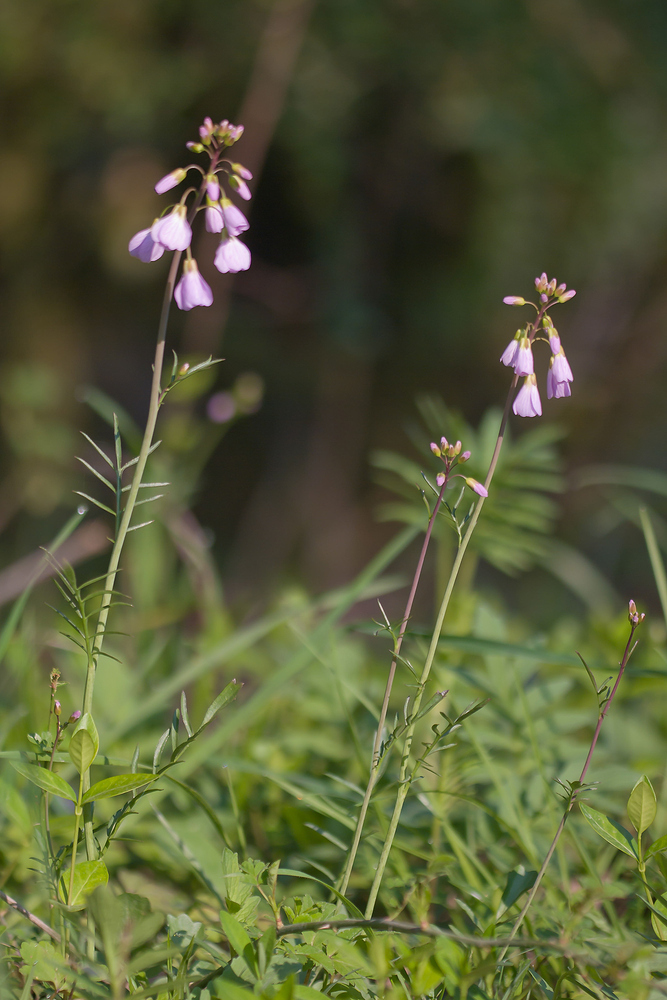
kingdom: Plantae
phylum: Tracheophyta
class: Magnoliopsida
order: Brassicales
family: Brassicaceae
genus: Cardamine
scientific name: Cardamine pratensis
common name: Cuckoo flower
